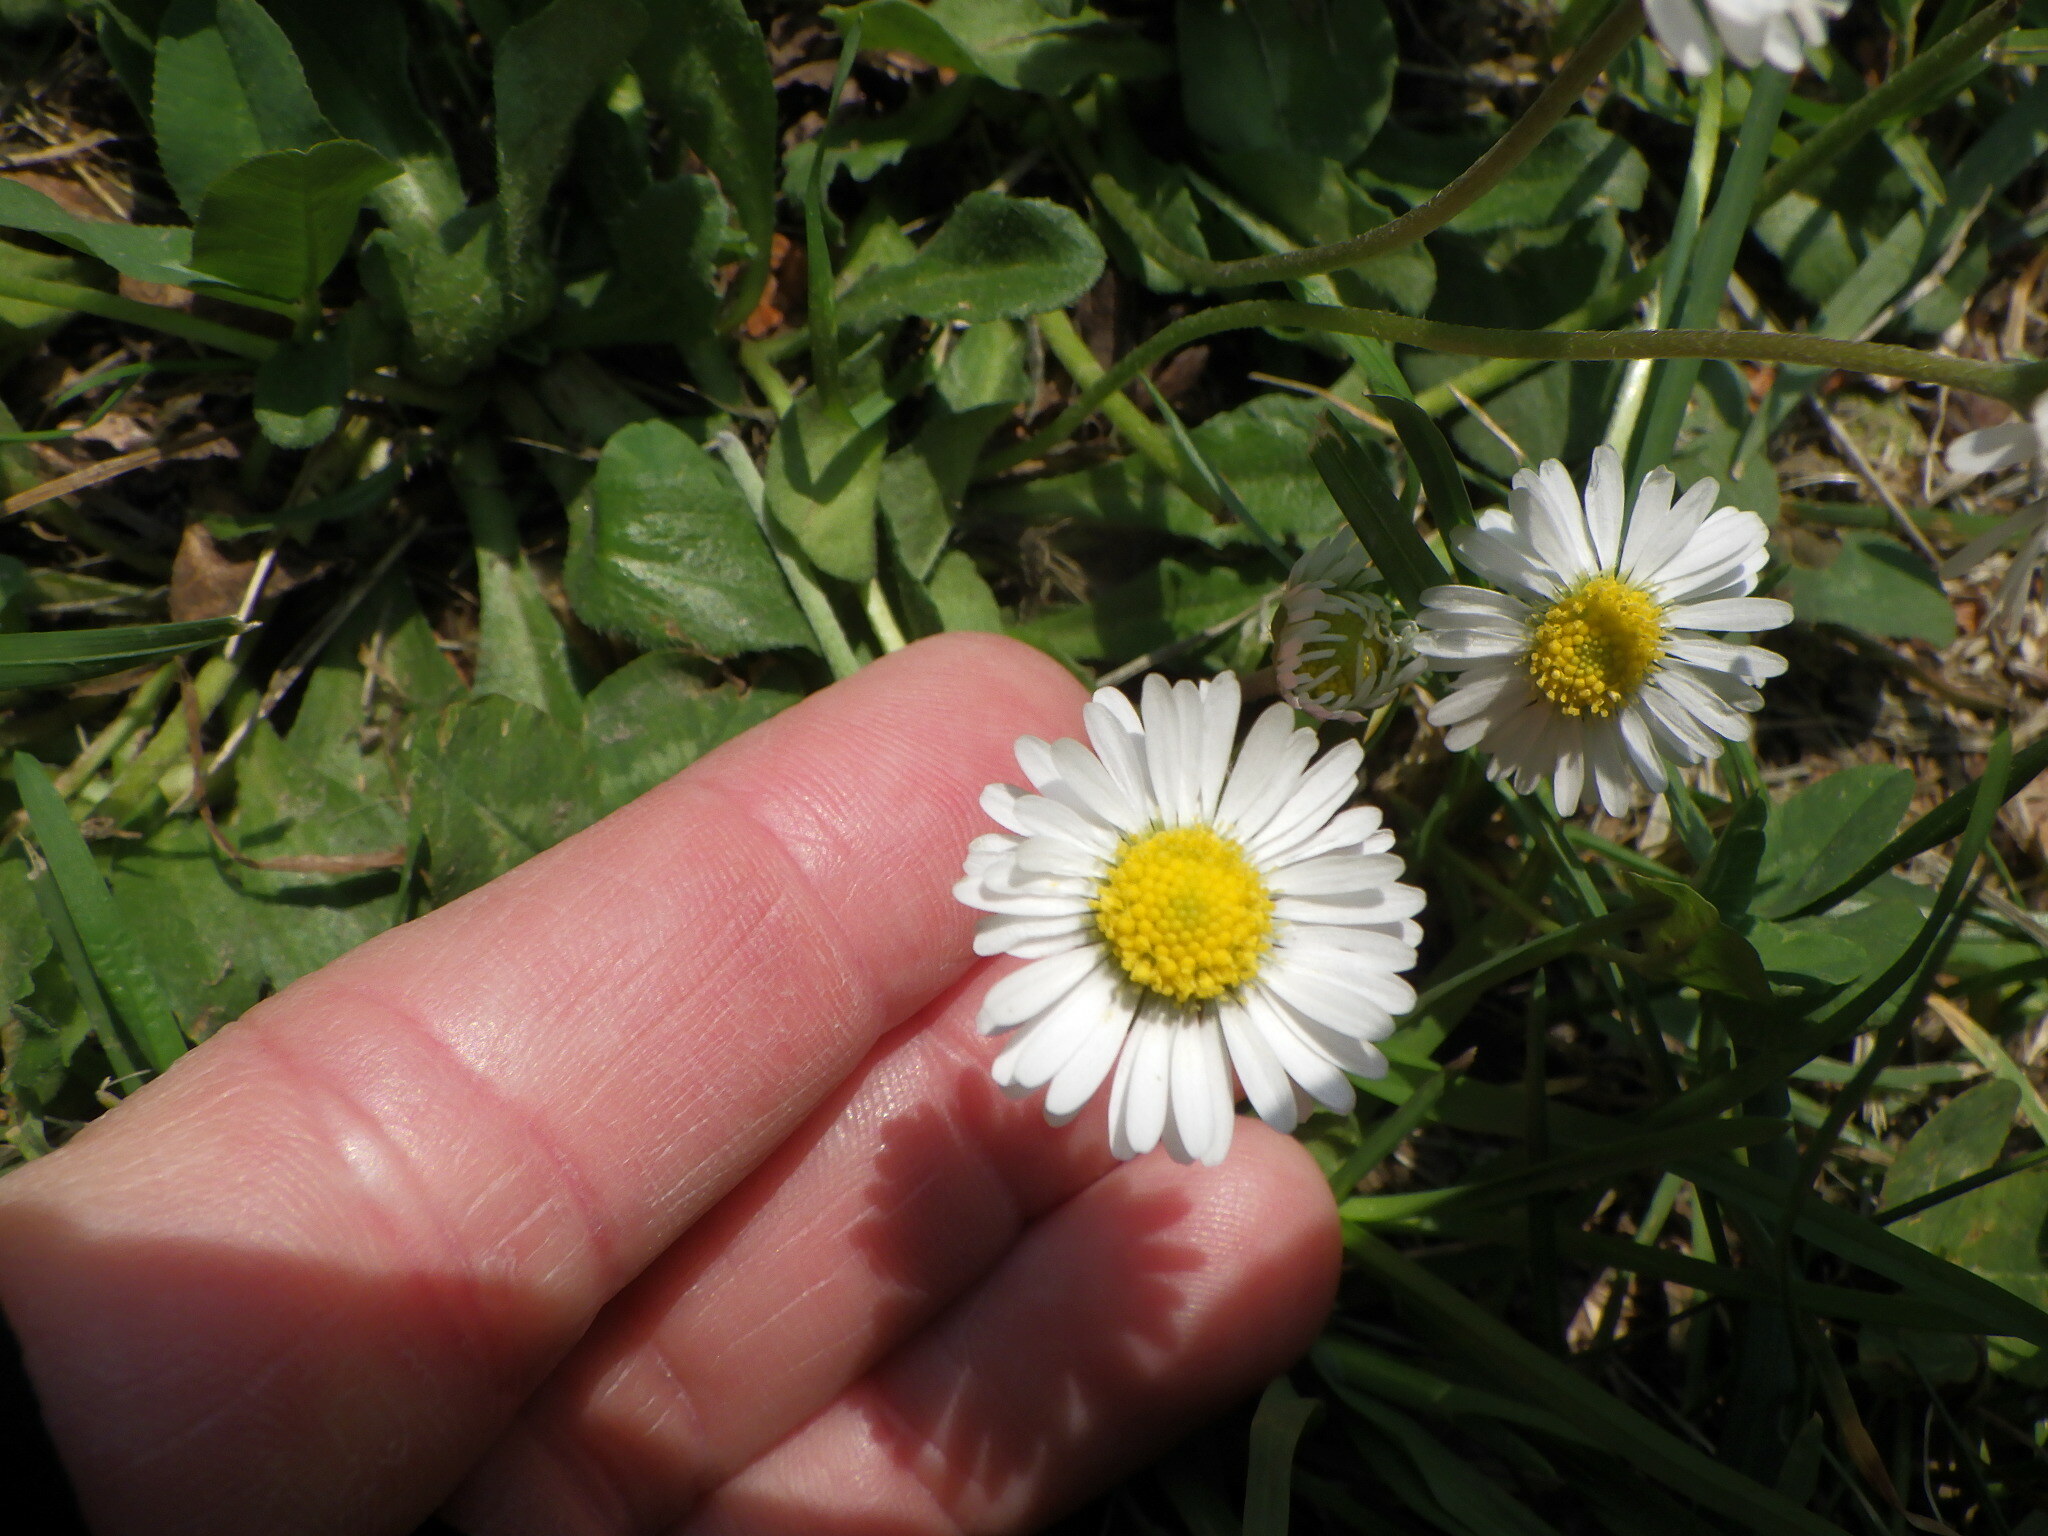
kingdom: Plantae
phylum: Tracheophyta
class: Magnoliopsida
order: Asterales
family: Asteraceae
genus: Bellis
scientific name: Bellis perennis
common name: Lawndaisy
